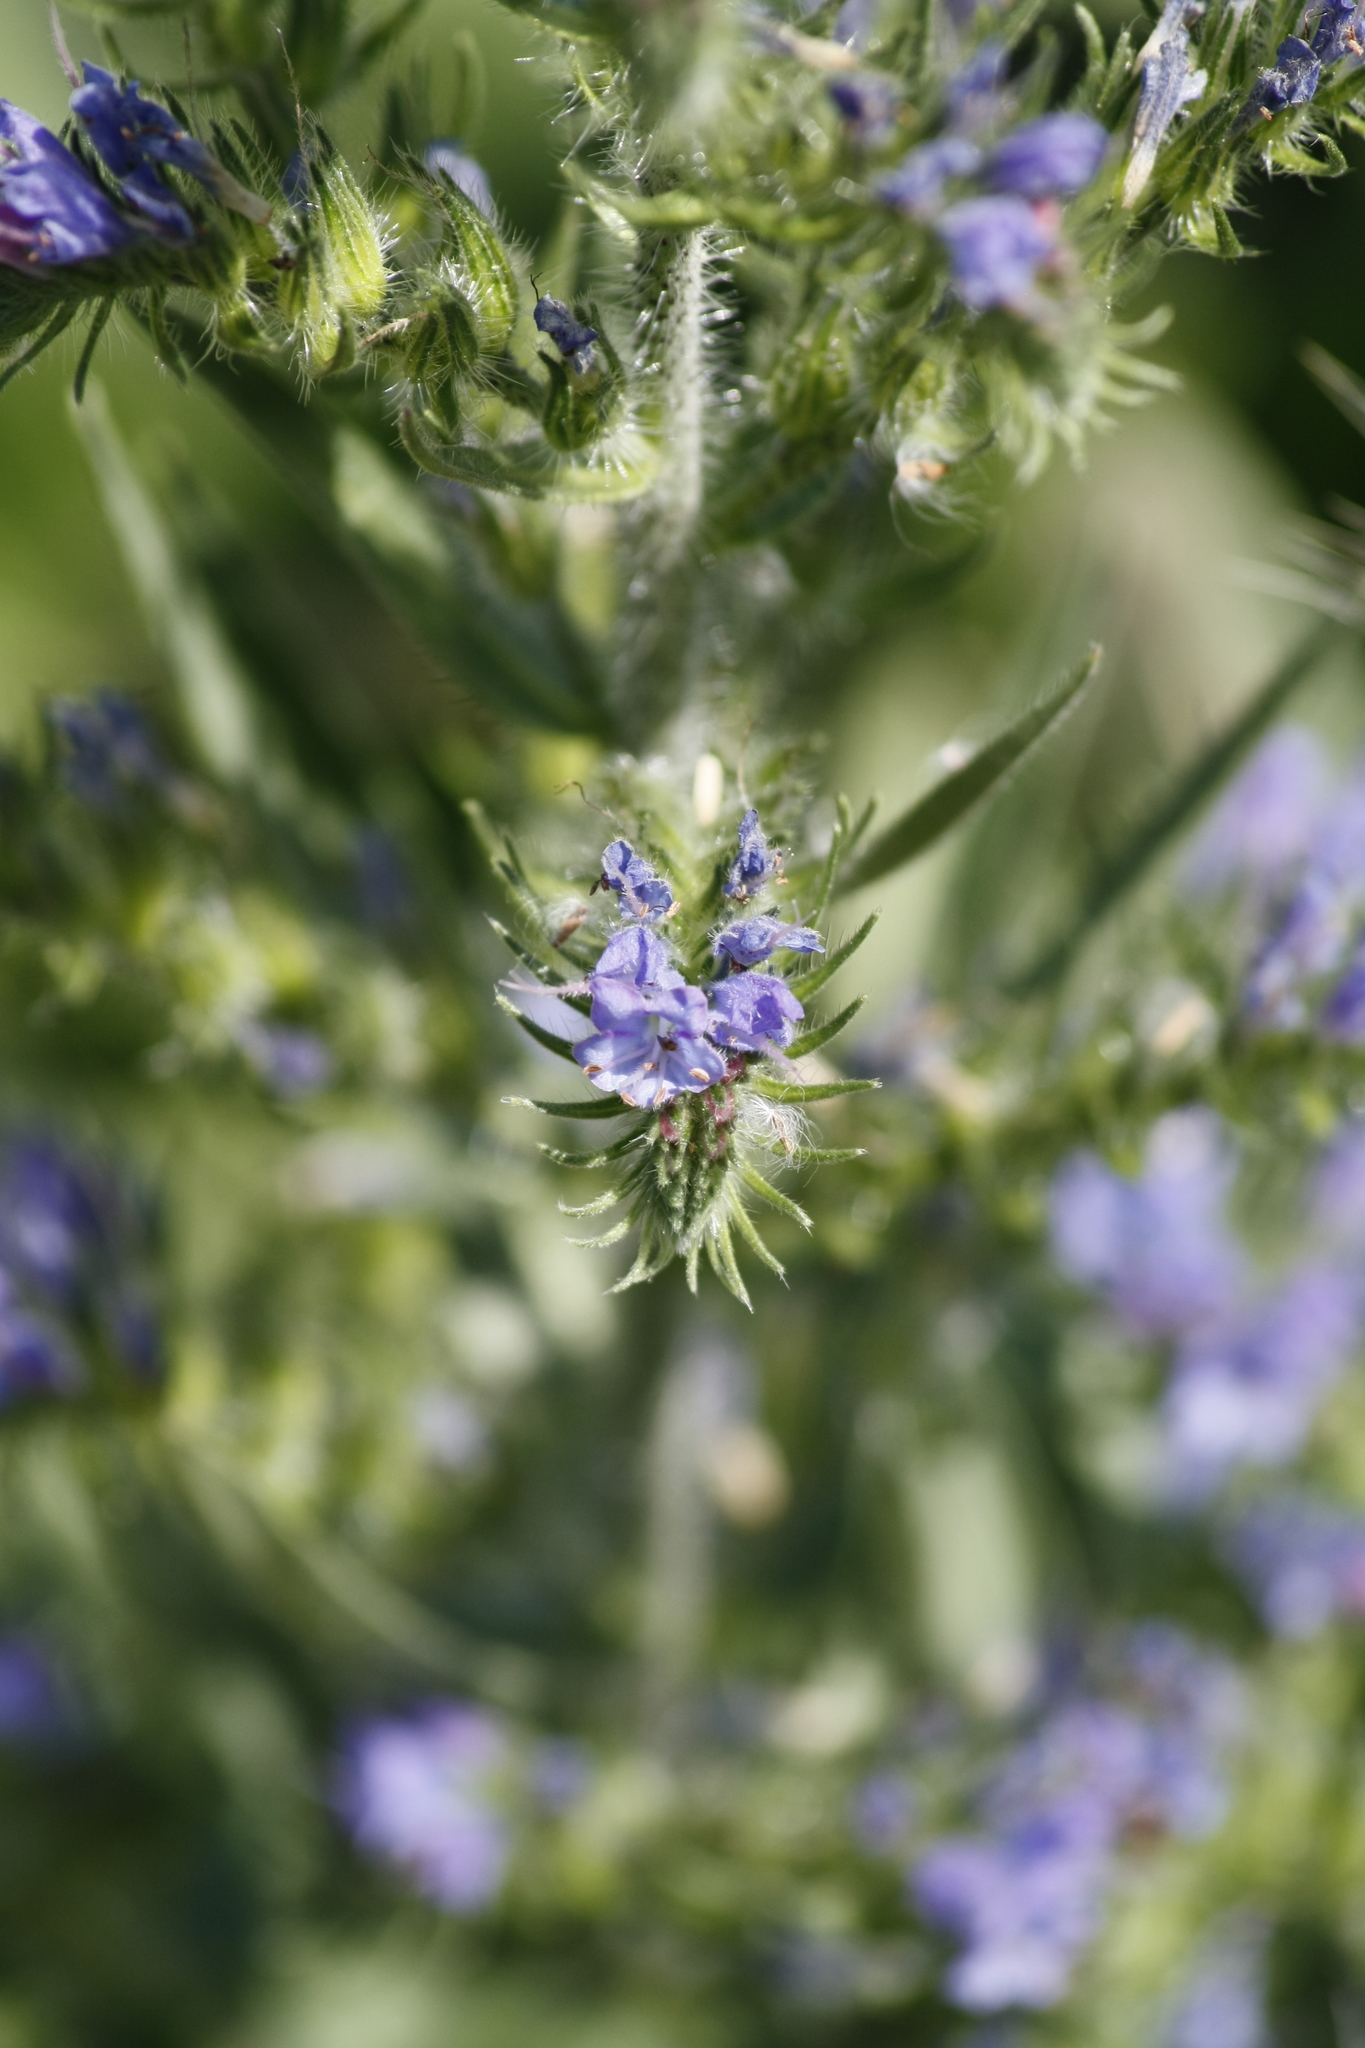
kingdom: Plantae
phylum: Tracheophyta
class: Magnoliopsida
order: Boraginales
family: Boraginaceae
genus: Echium
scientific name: Echium vulgare
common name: Common viper's bugloss
